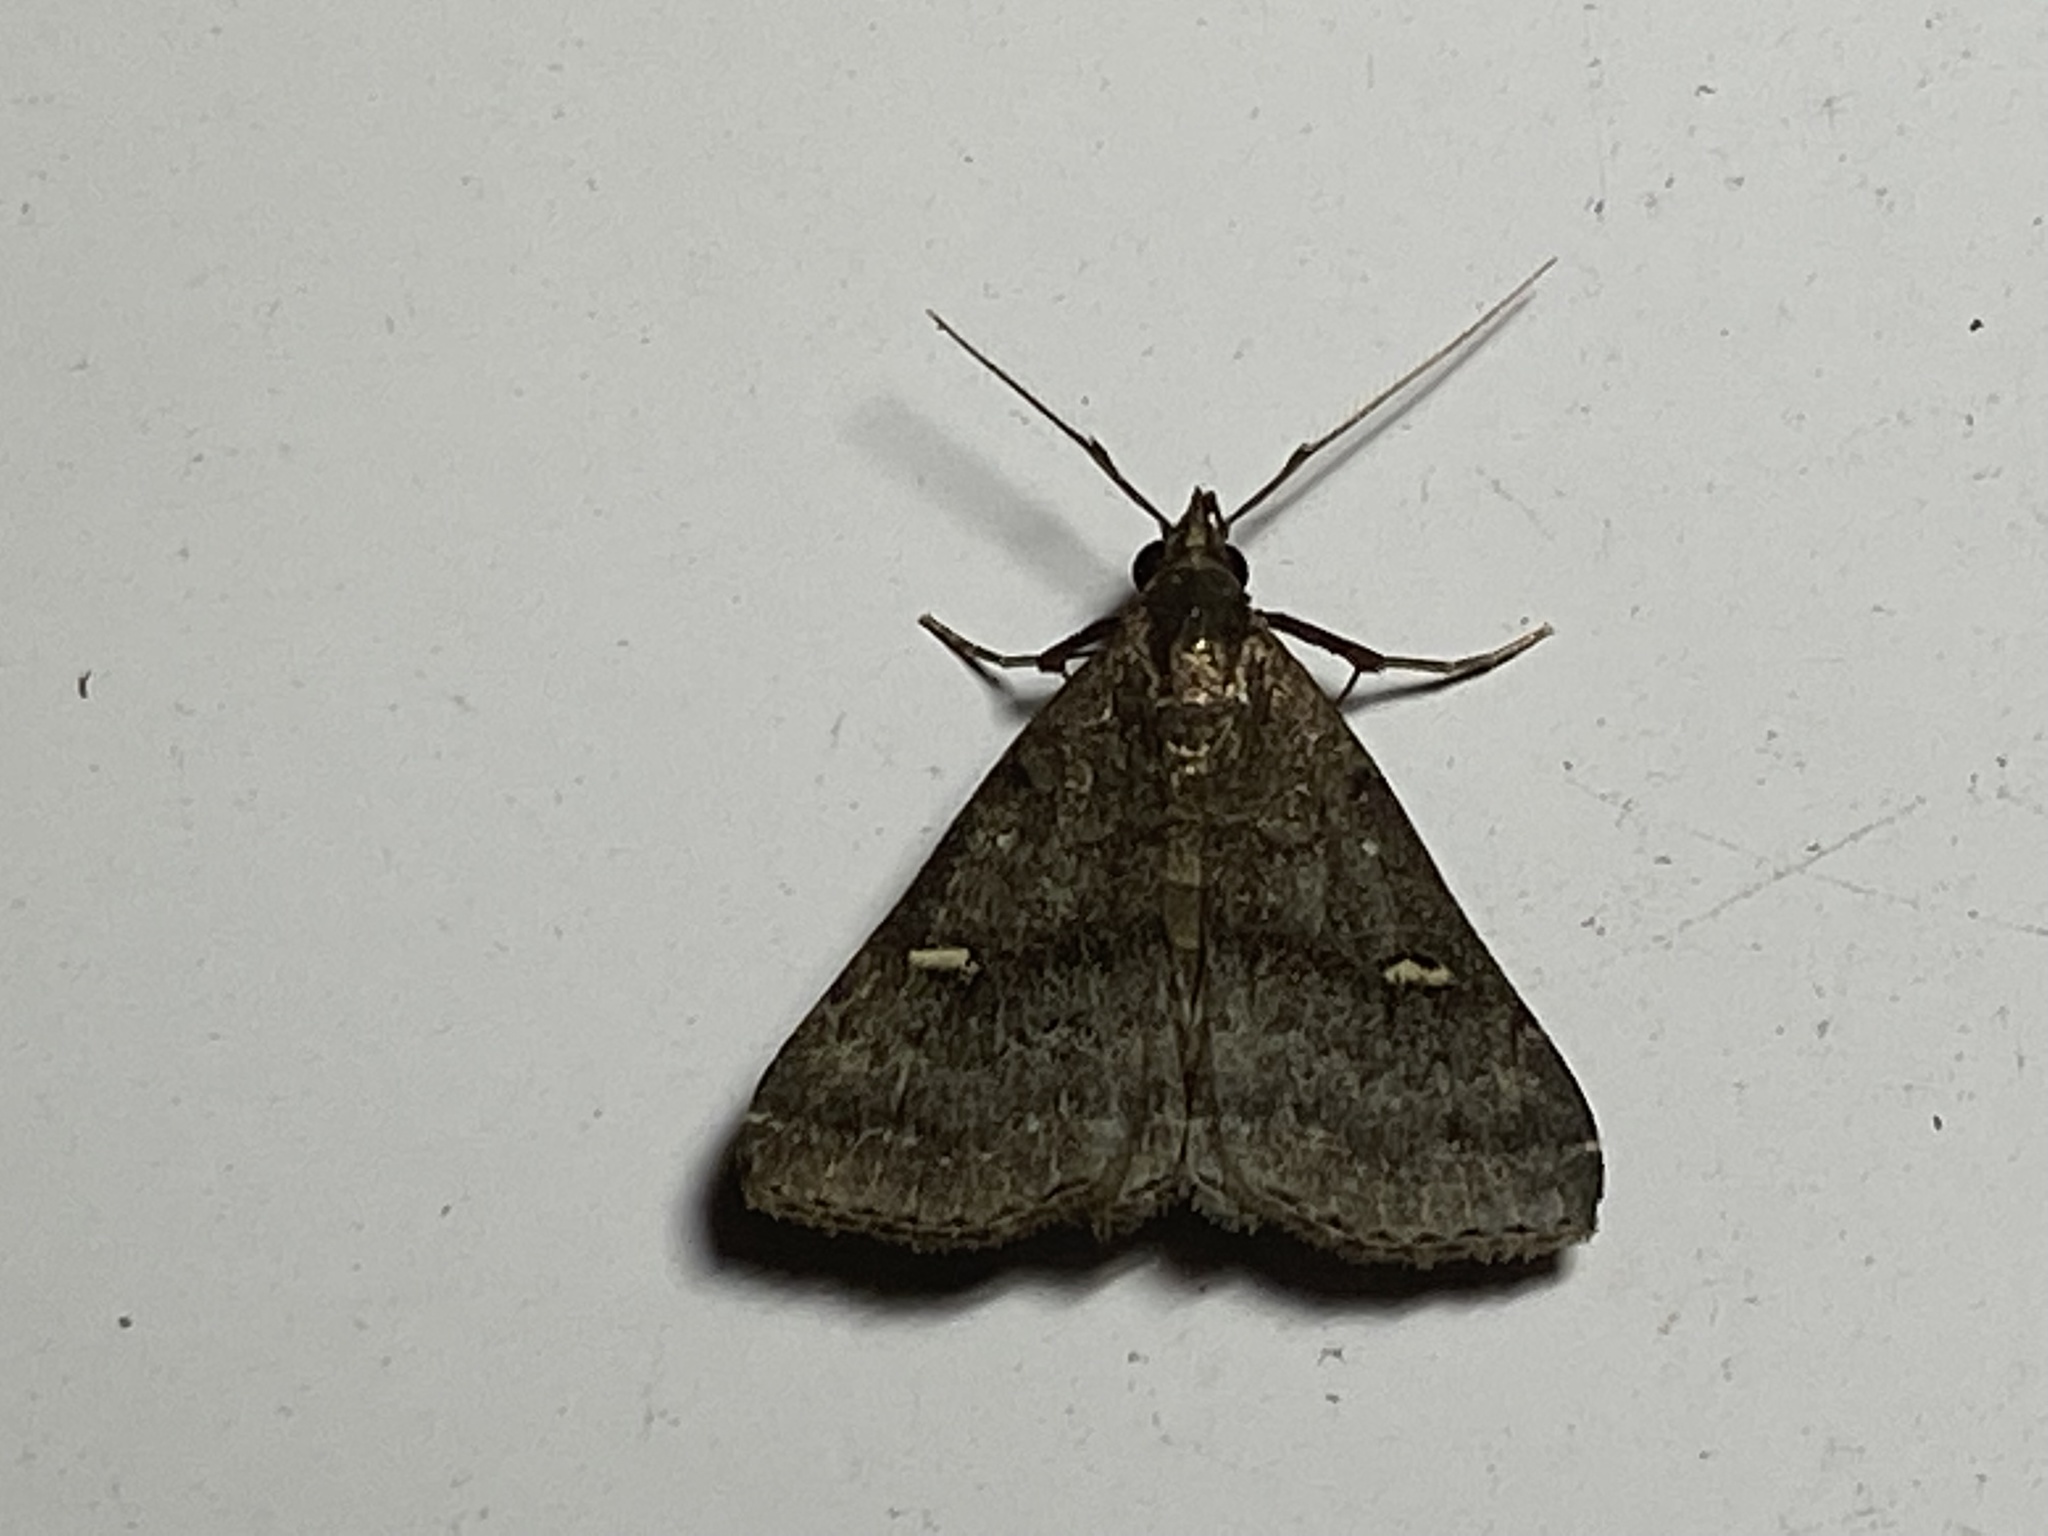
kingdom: Animalia
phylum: Arthropoda
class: Insecta
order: Lepidoptera
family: Erebidae
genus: Tetanolita
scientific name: Tetanolita mynesalis
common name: Smoky tetanolita moth
